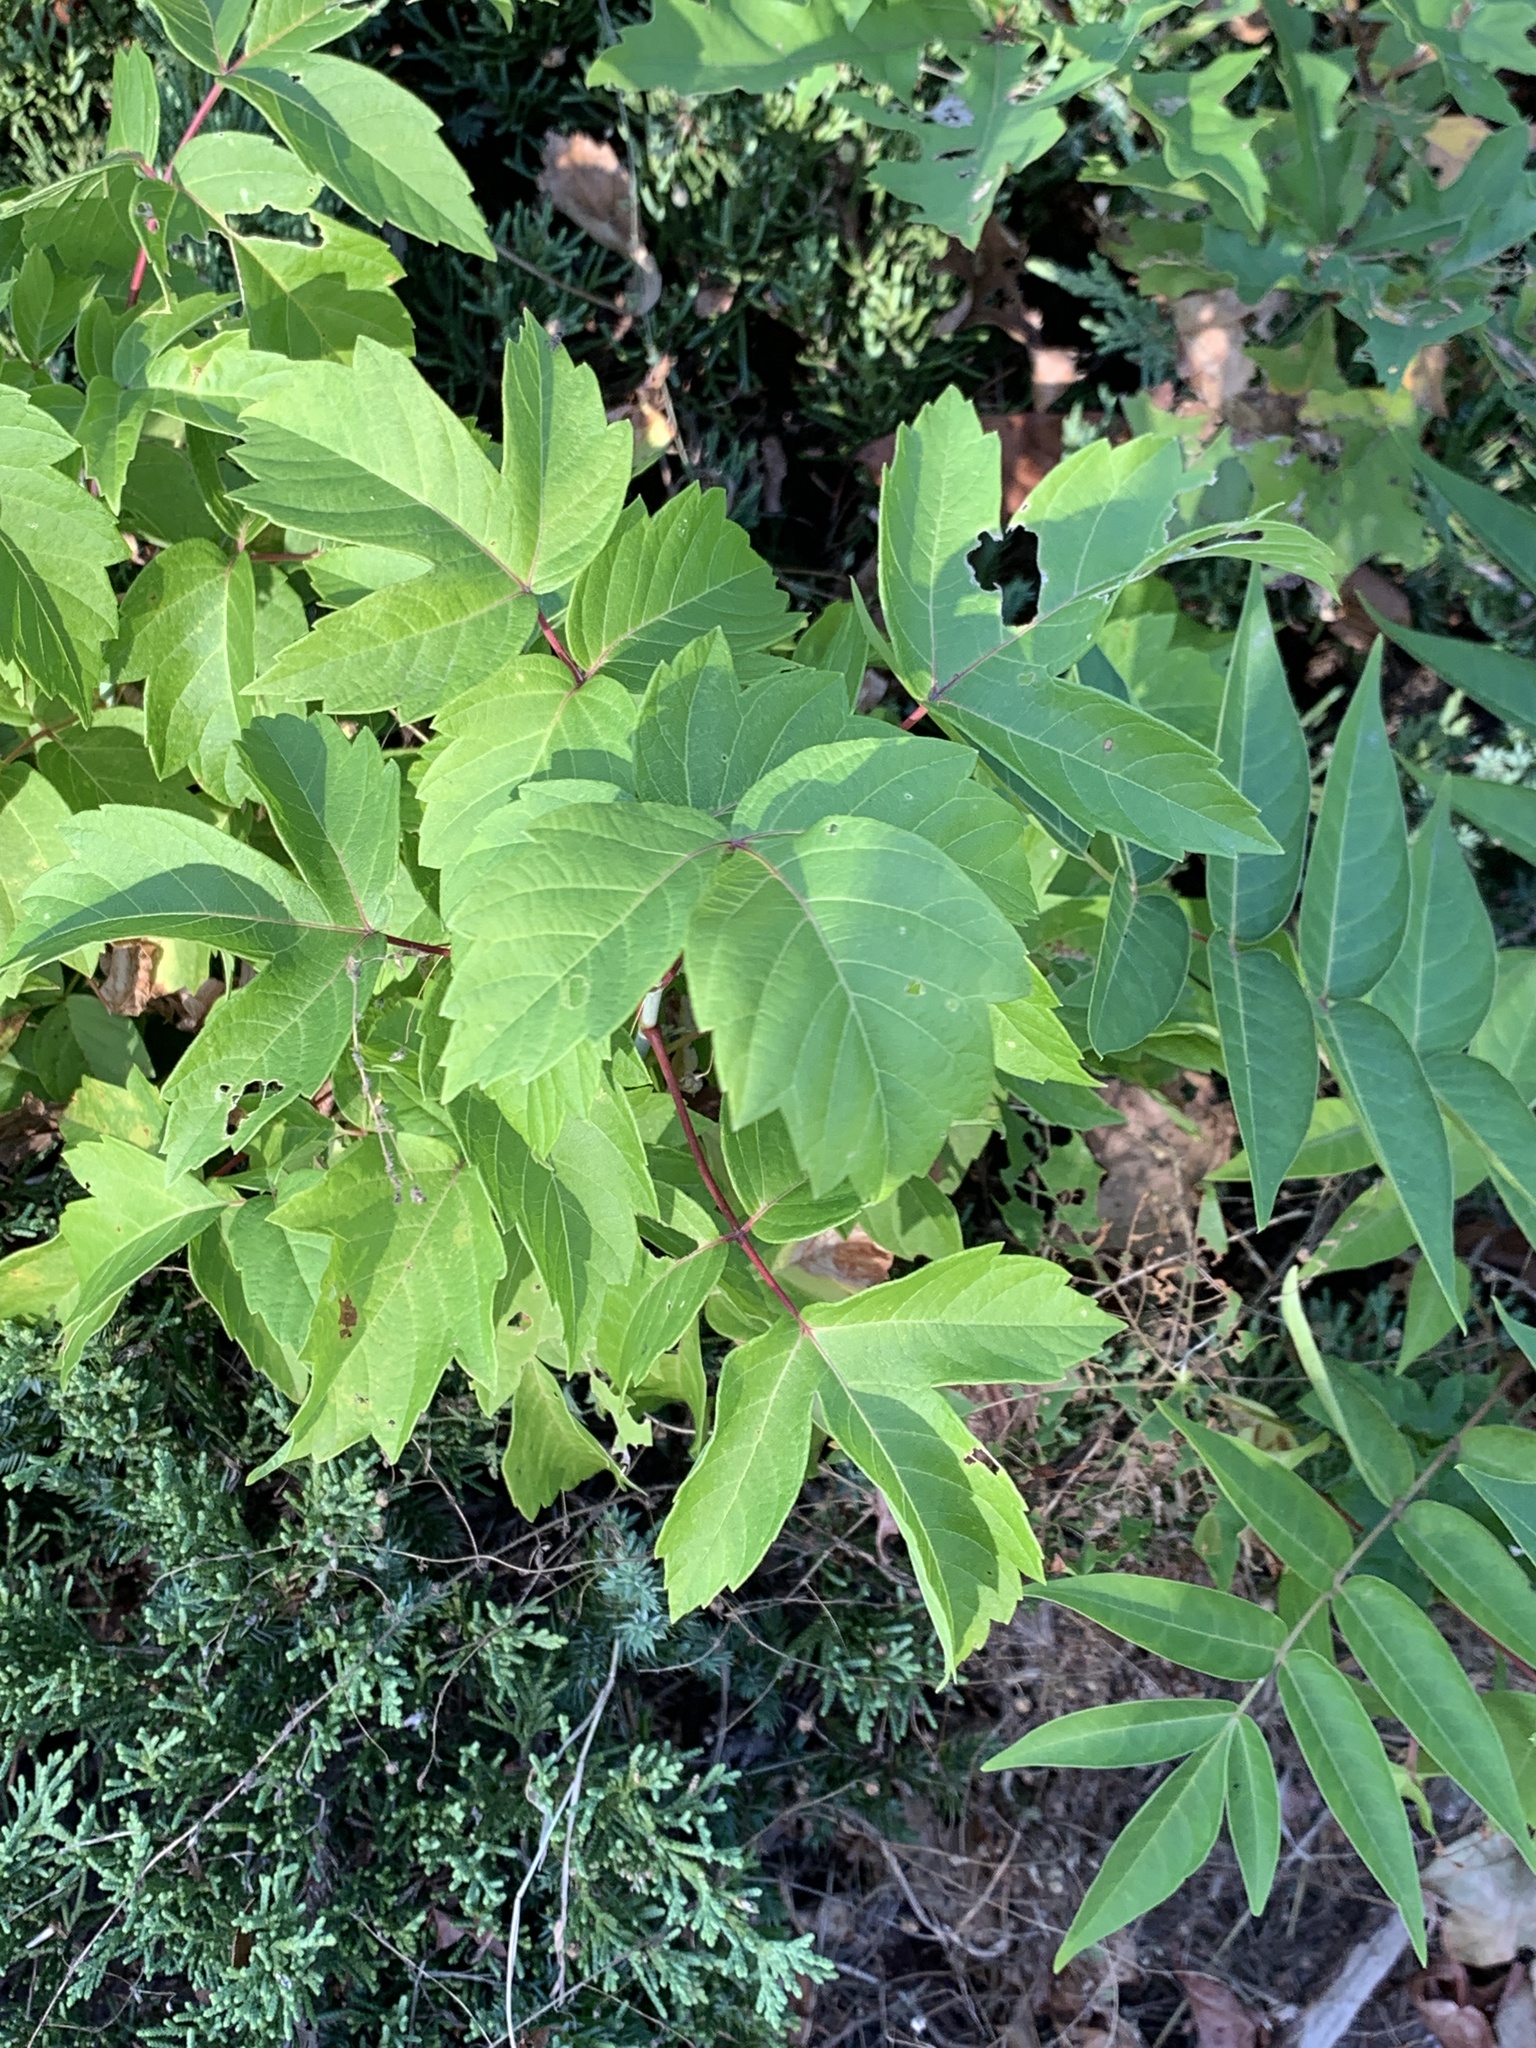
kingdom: Plantae
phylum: Tracheophyta
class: Magnoliopsida
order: Sapindales
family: Sapindaceae
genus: Acer
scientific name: Acer negundo
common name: Ashleaf maple
